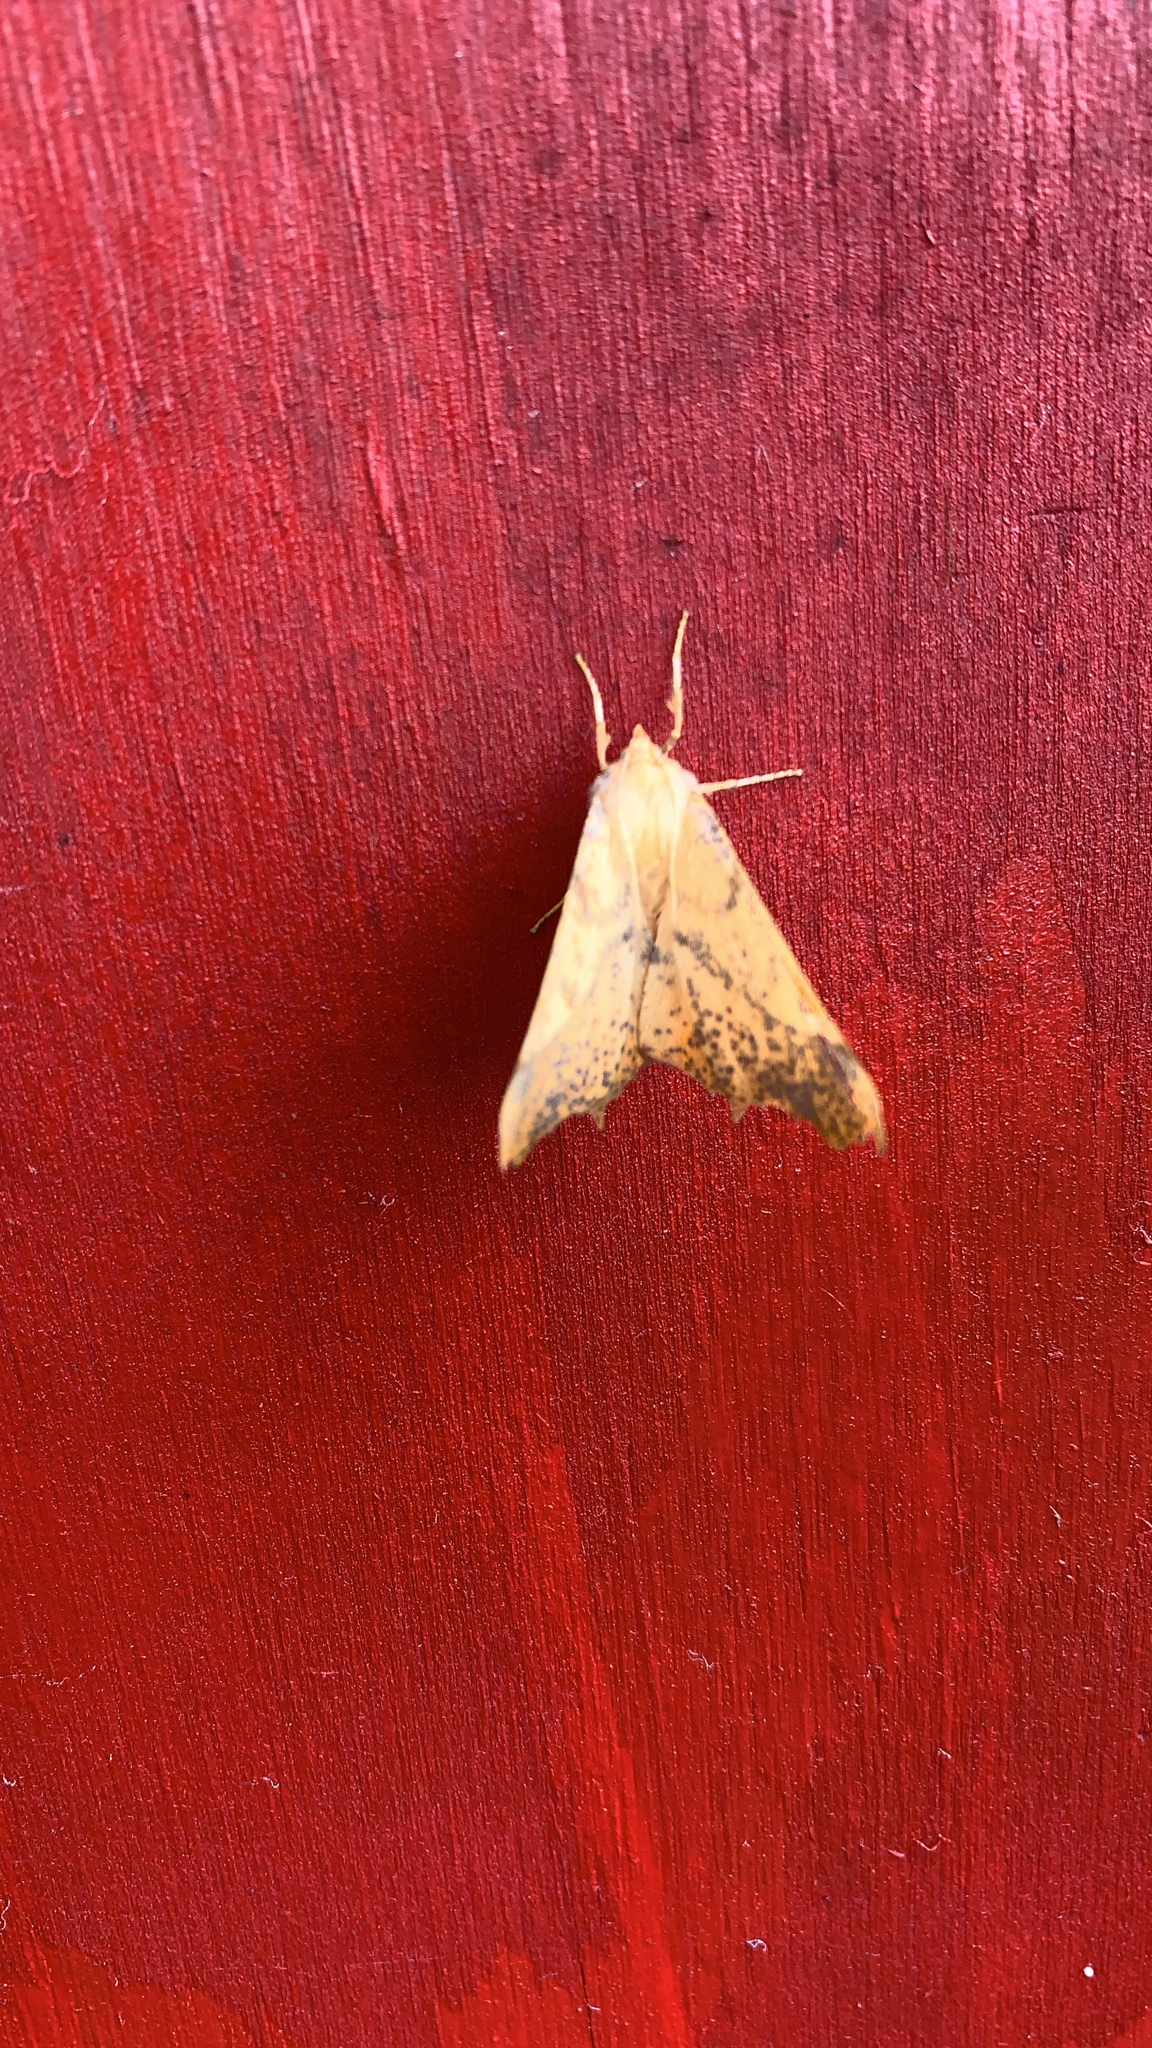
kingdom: Animalia
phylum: Arthropoda
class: Insecta
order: Lepidoptera
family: Geometridae
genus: Ennomos
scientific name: Ennomos magnaria
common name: Maple spanworm
